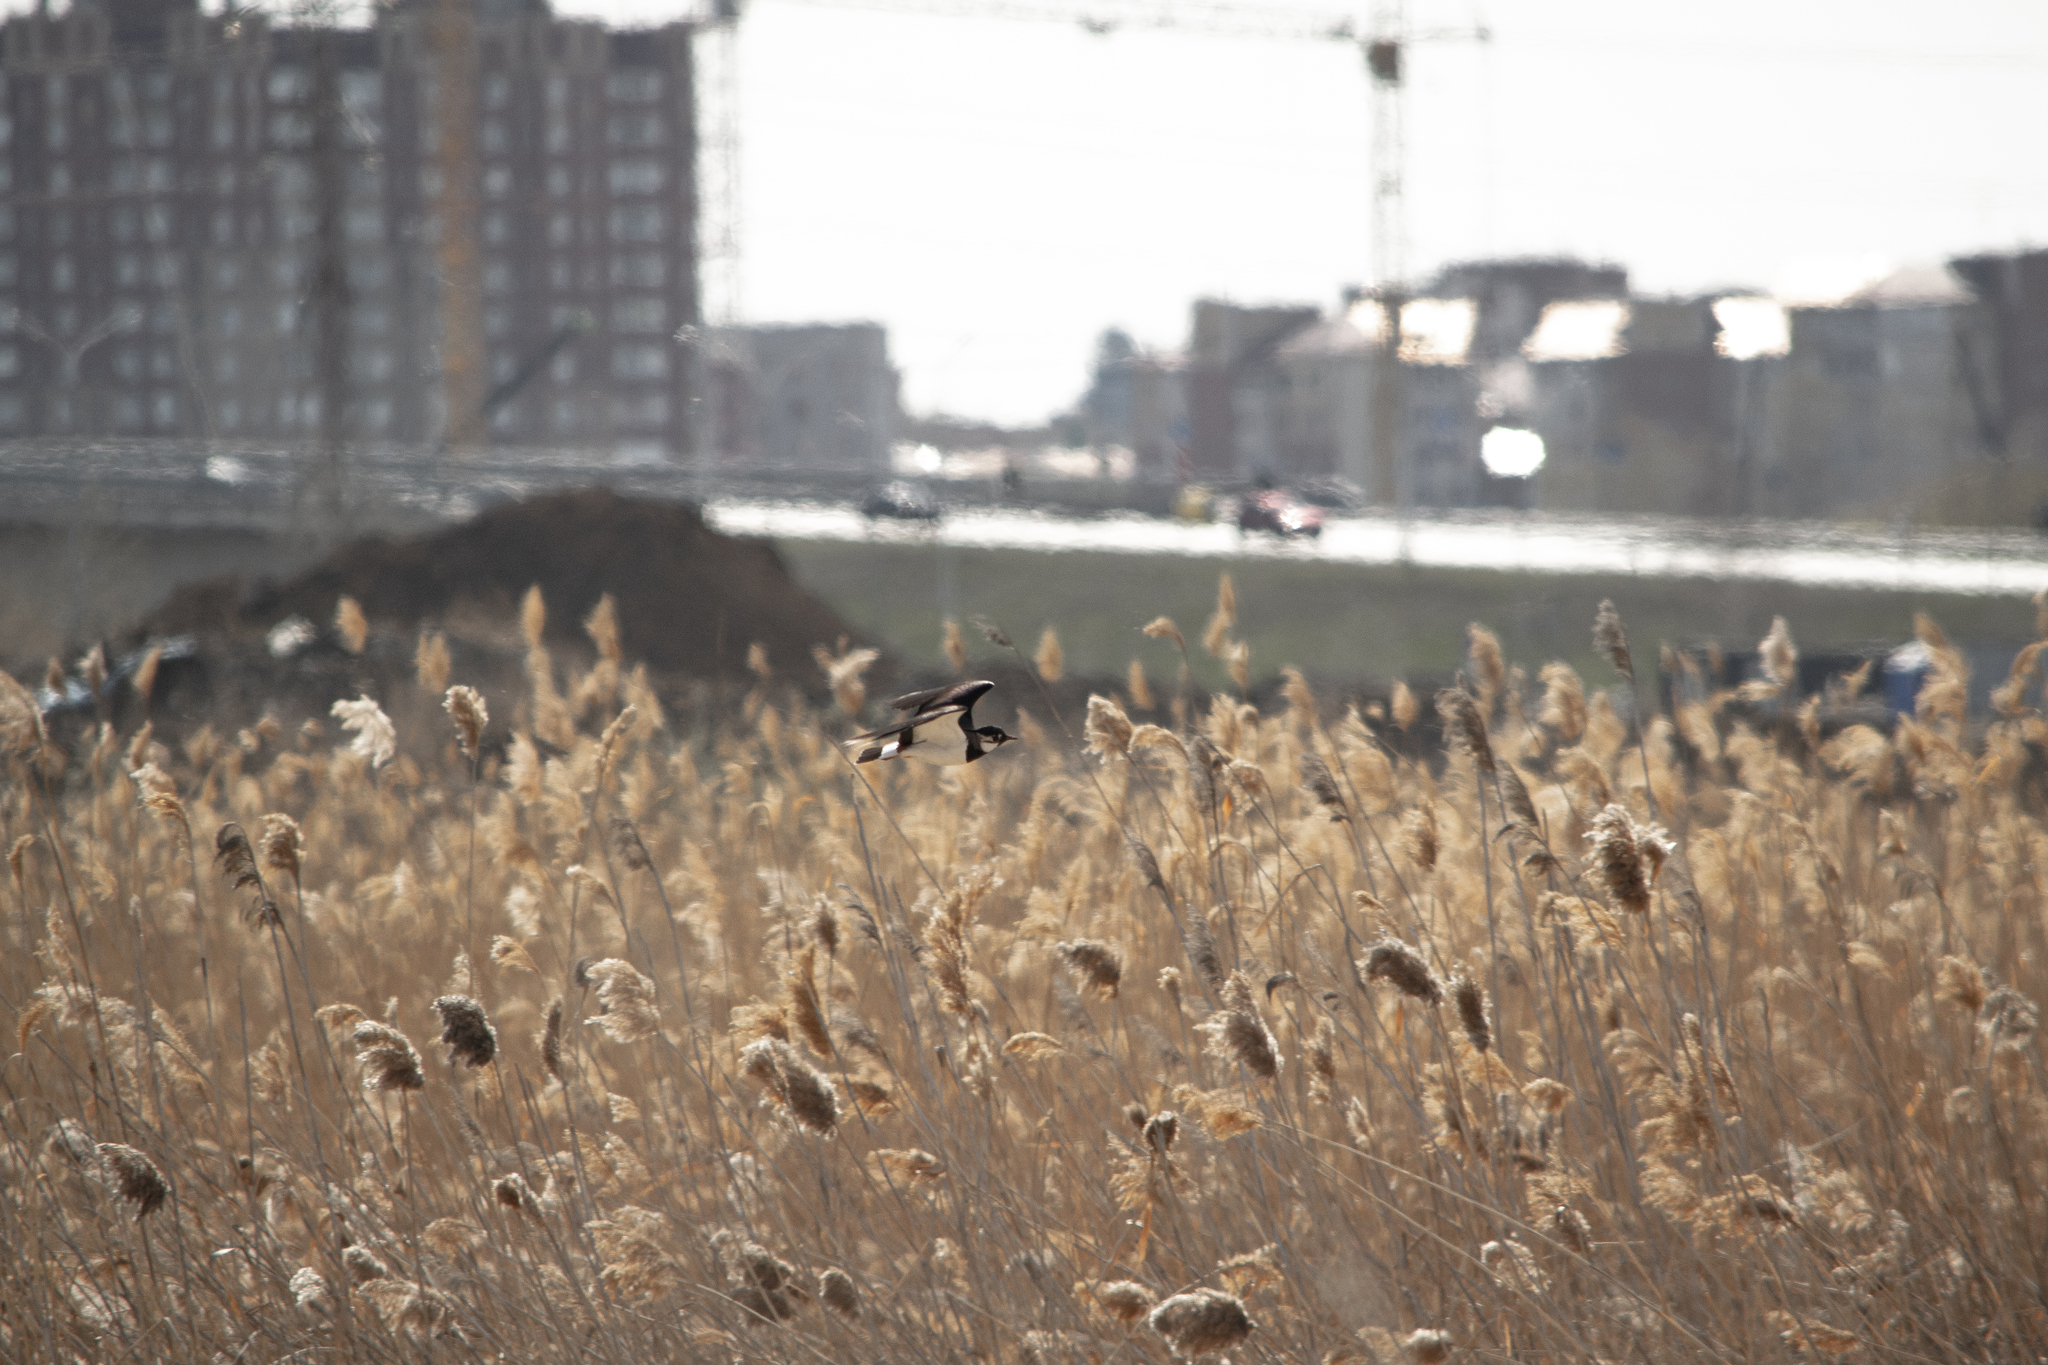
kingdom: Animalia
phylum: Chordata
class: Aves
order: Charadriiformes
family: Charadriidae
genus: Vanellus
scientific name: Vanellus vanellus
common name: Northern lapwing
